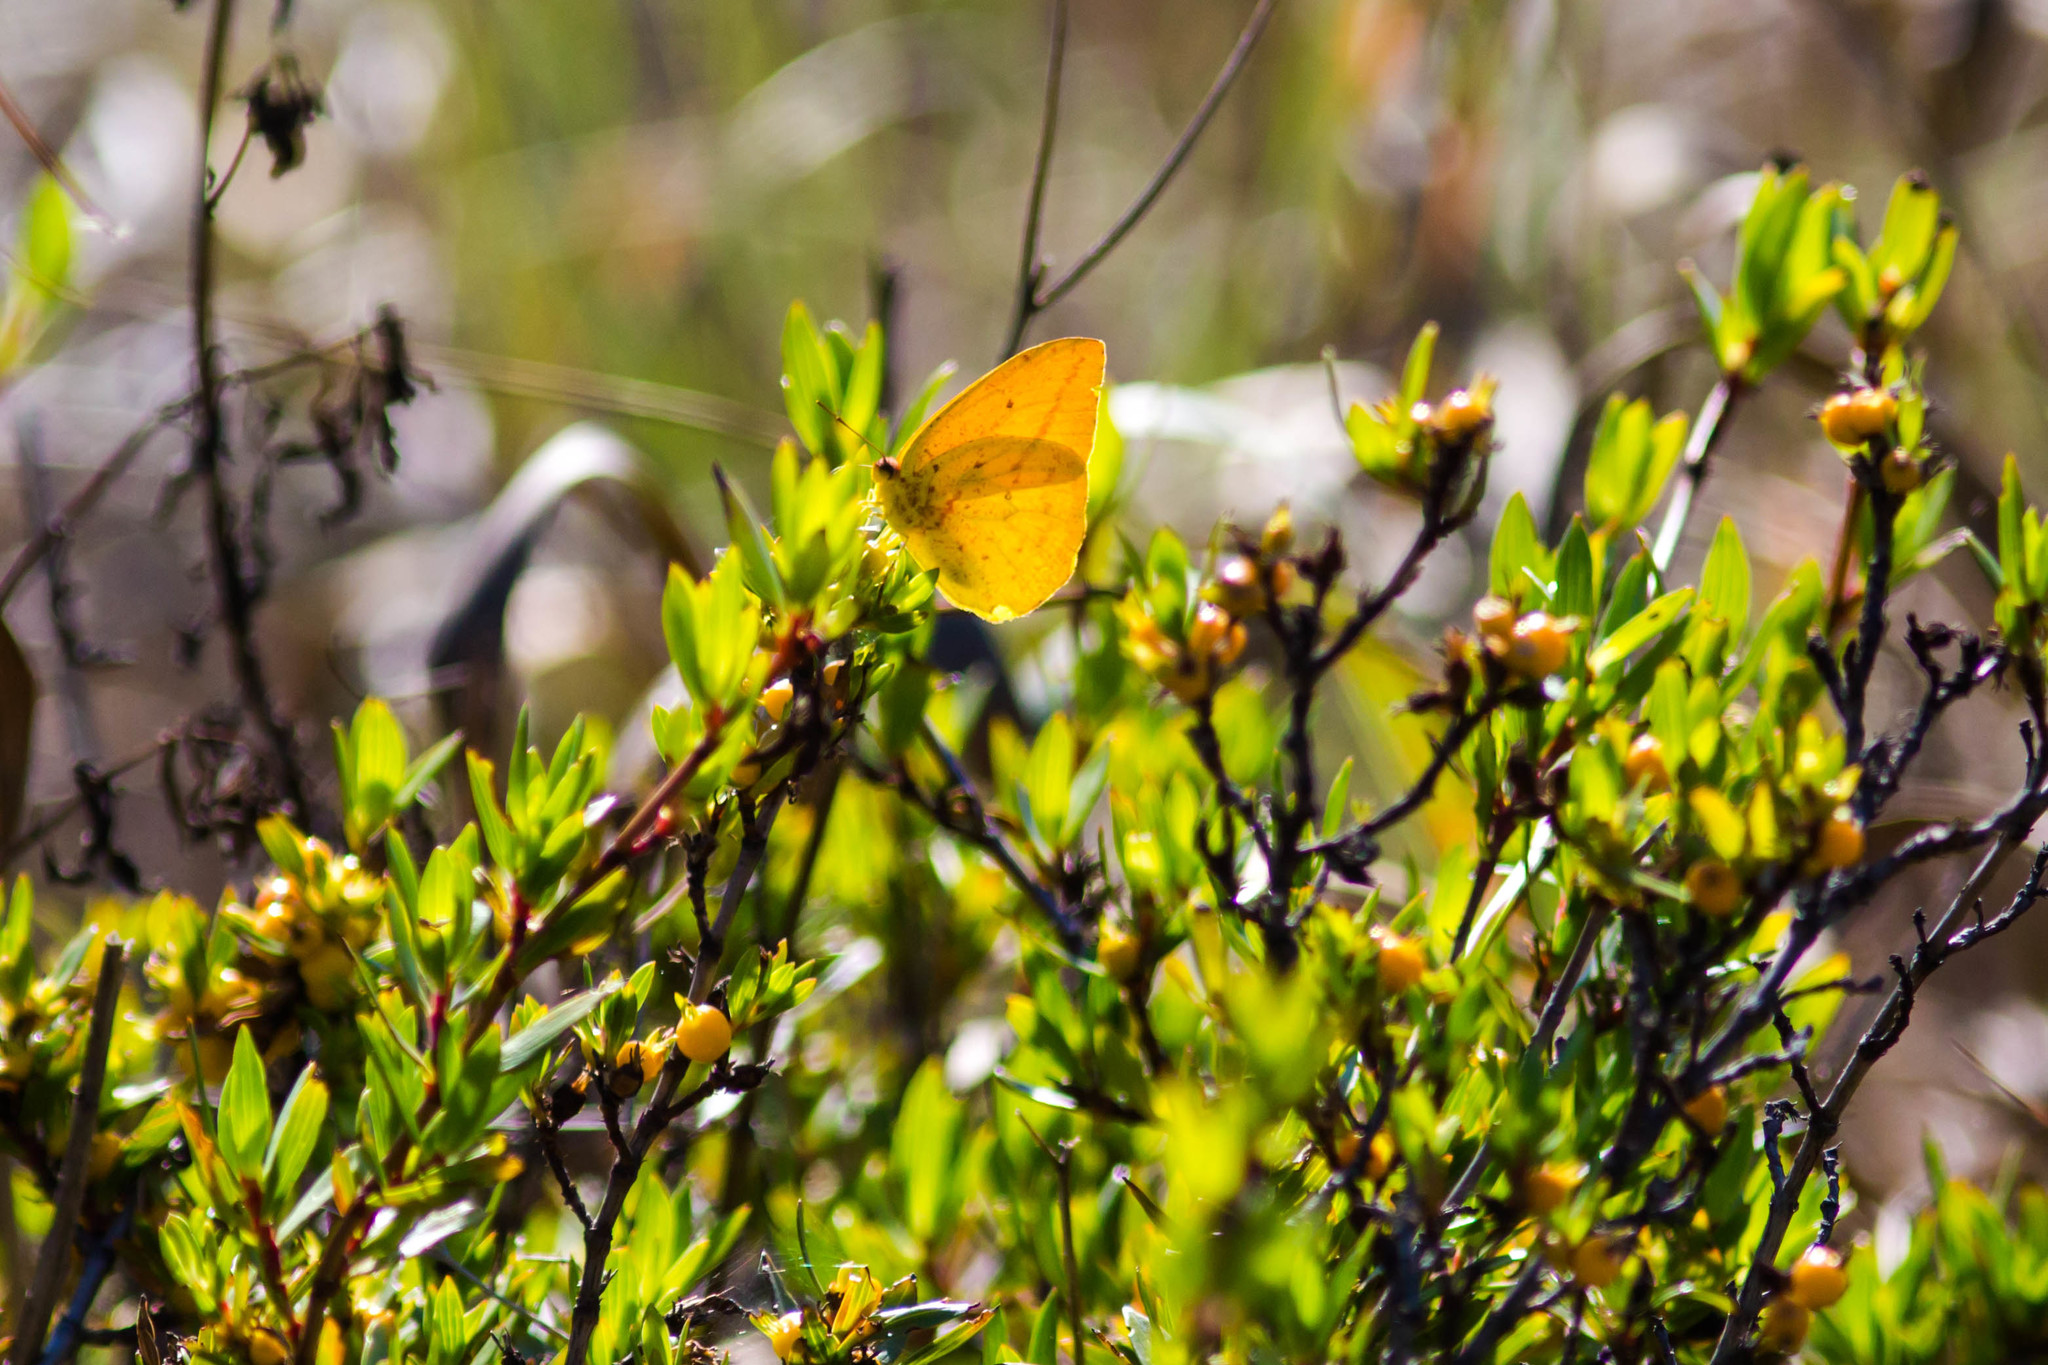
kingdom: Animalia
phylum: Arthropoda
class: Insecta
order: Lepidoptera
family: Pieridae
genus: Phoebis
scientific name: Phoebis agarithe
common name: Large orange sulphur
